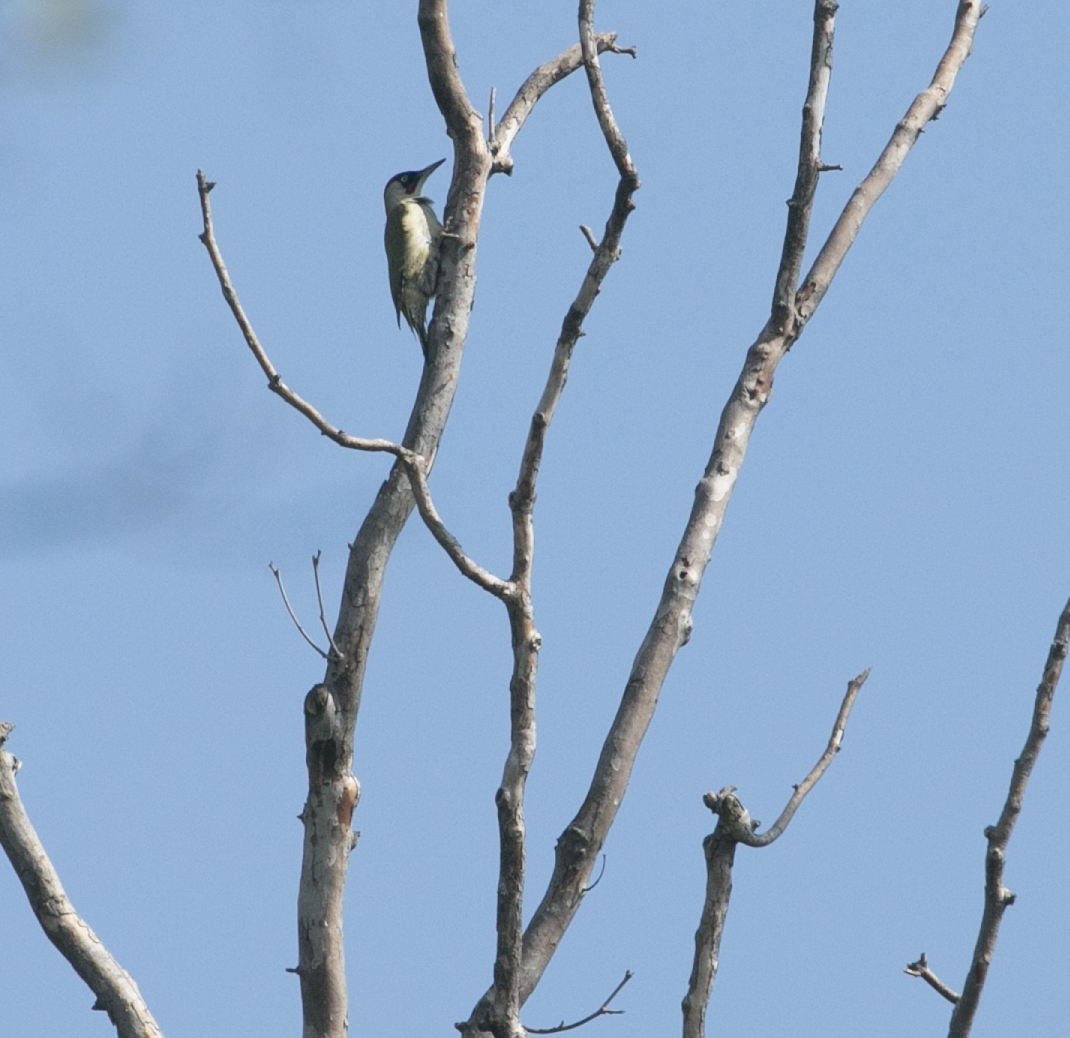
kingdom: Animalia
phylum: Chordata
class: Aves
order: Piciformes
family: Picidae
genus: Picus
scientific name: Picus viridis
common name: European green woodpecker
